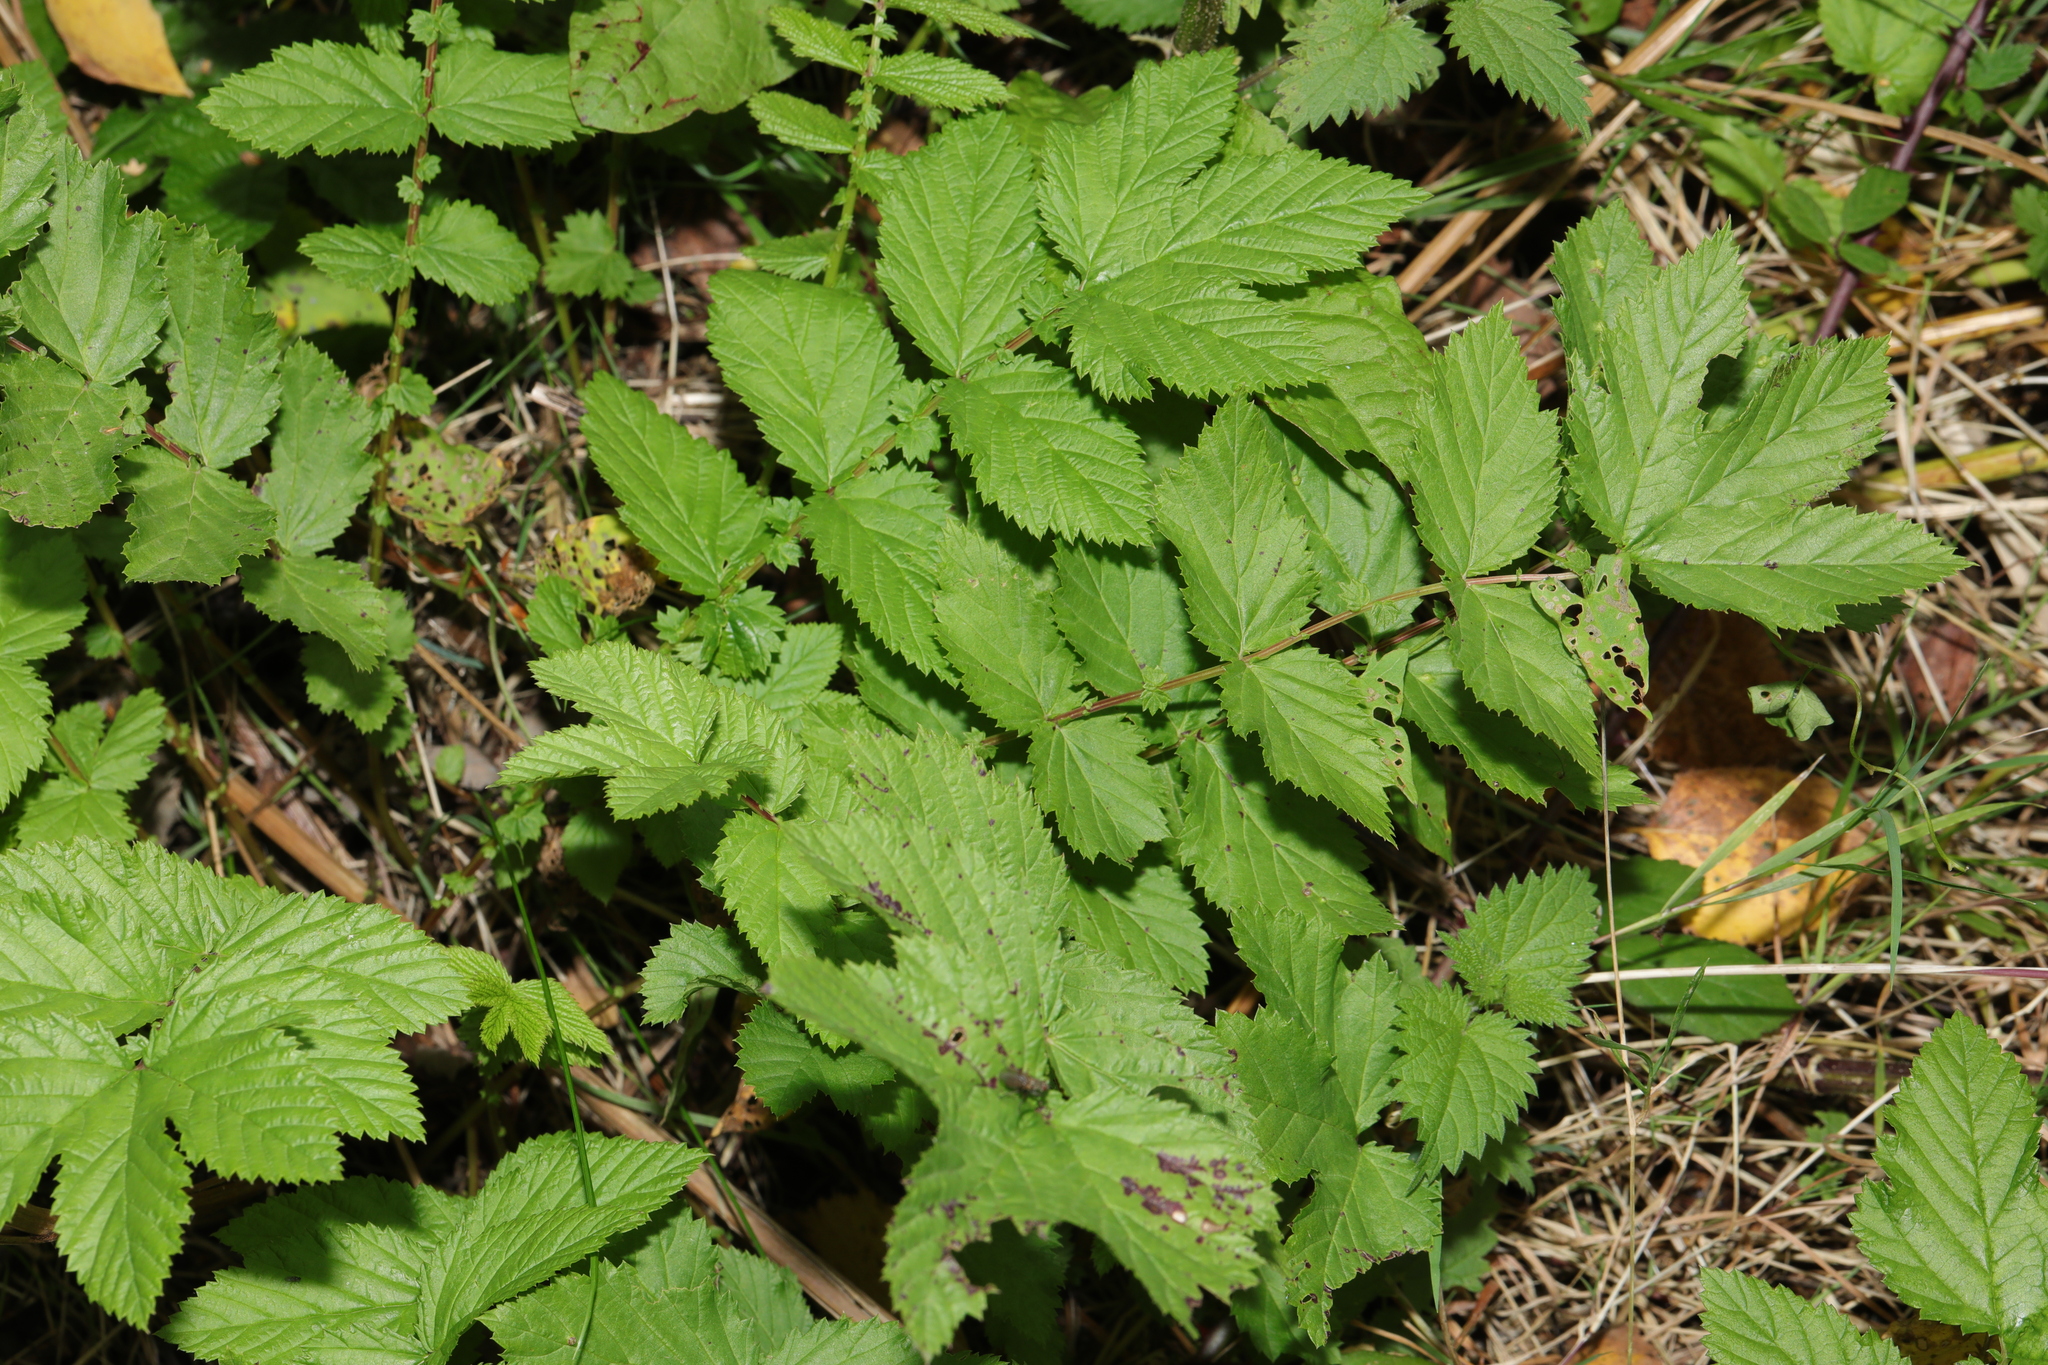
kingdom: Plantae
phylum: Tracheophyta
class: Magnoliopsida
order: Rosales
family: Rosaceae
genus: Filipendula
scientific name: Filipendula ulmaria
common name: Meadowsweet
